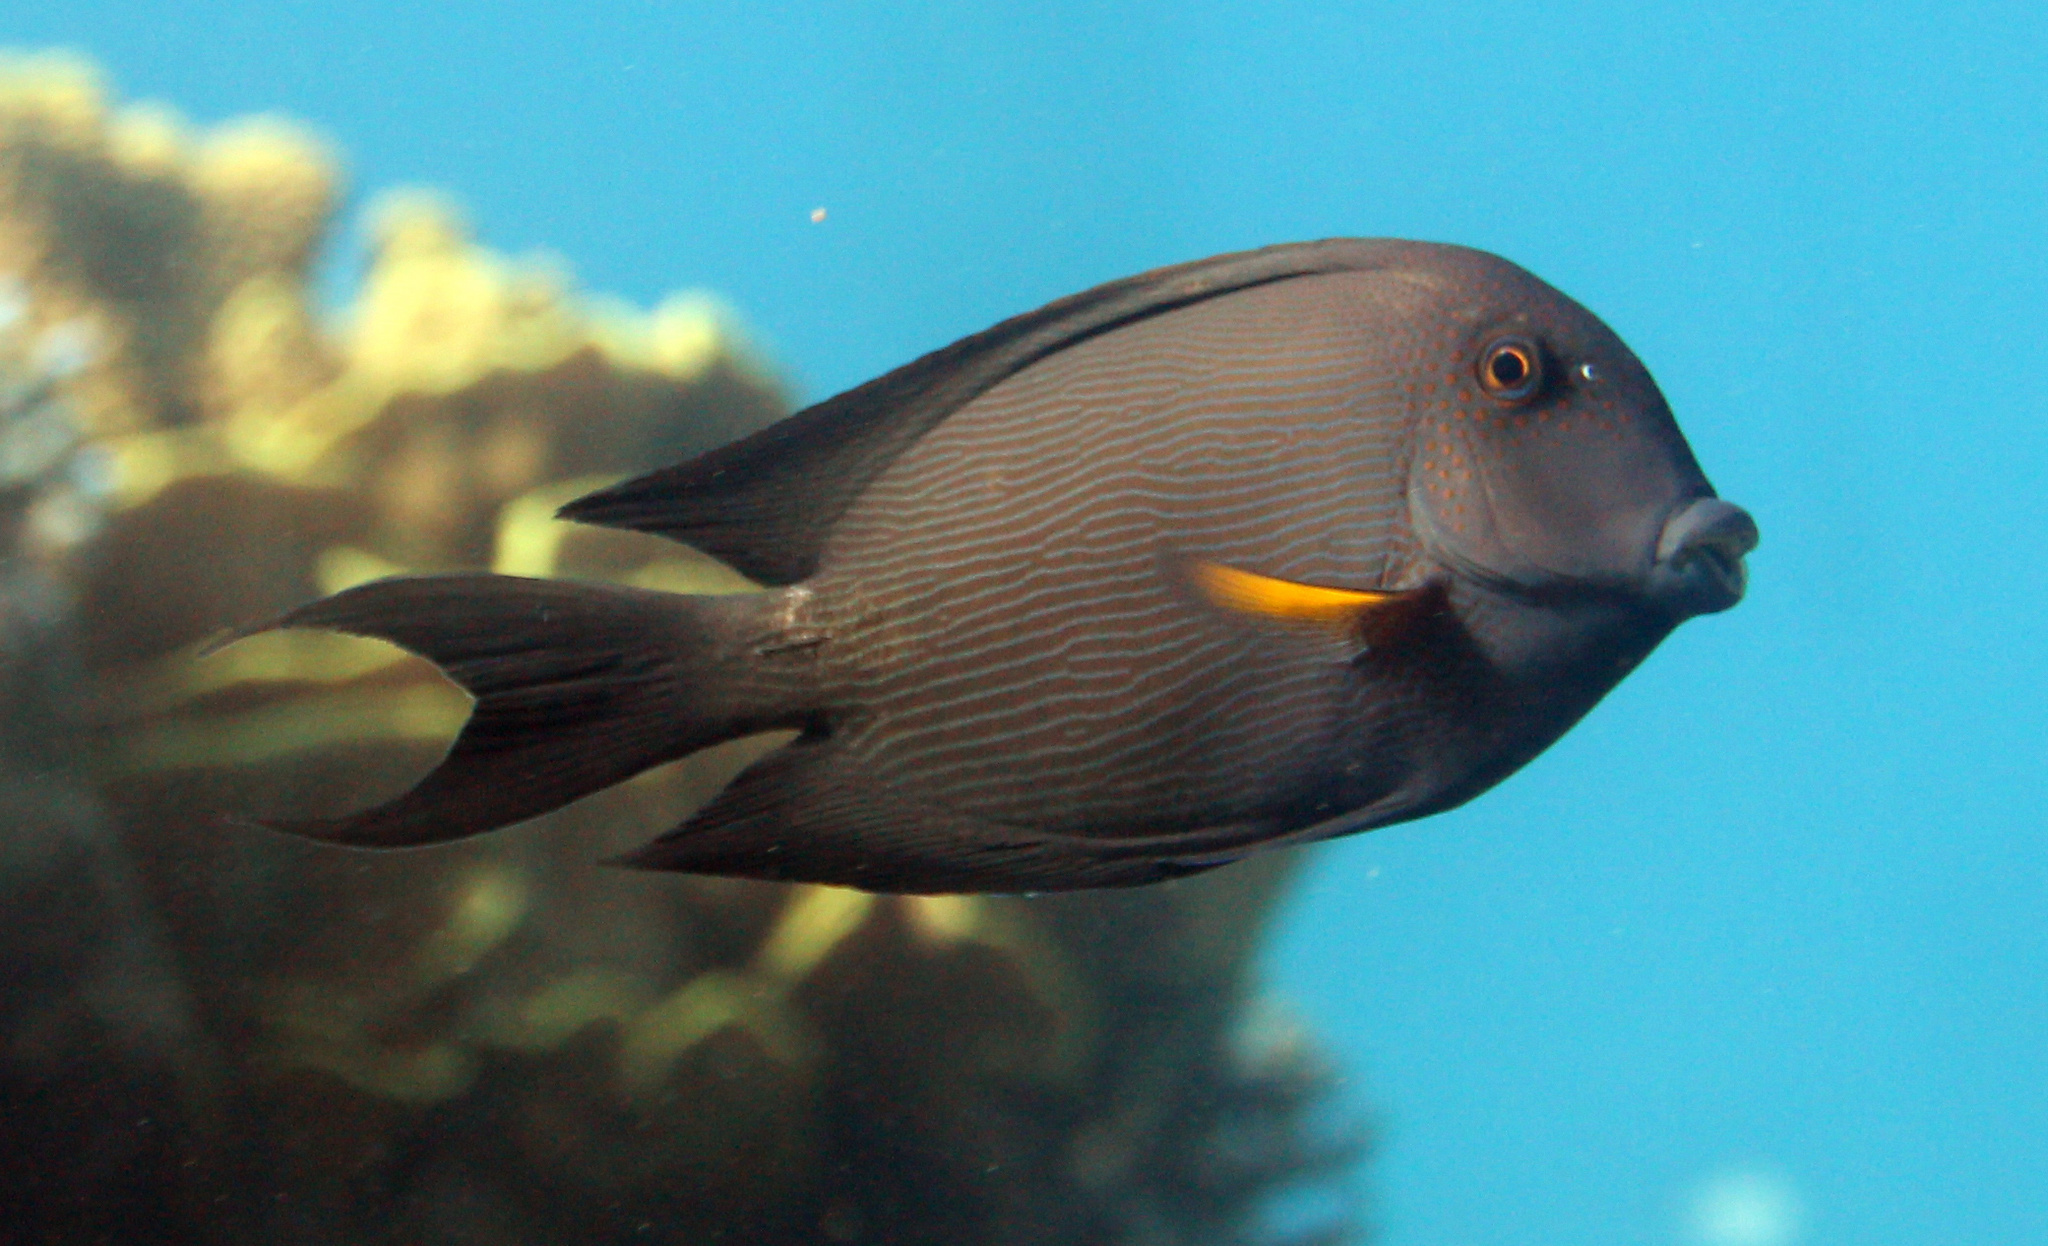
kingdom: Animalia
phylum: Chordata
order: Perciformes
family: Acanthuridae
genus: Ctenochaetus
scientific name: Ctenochaetus striatus
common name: Bristle-toothed surgeonfish
